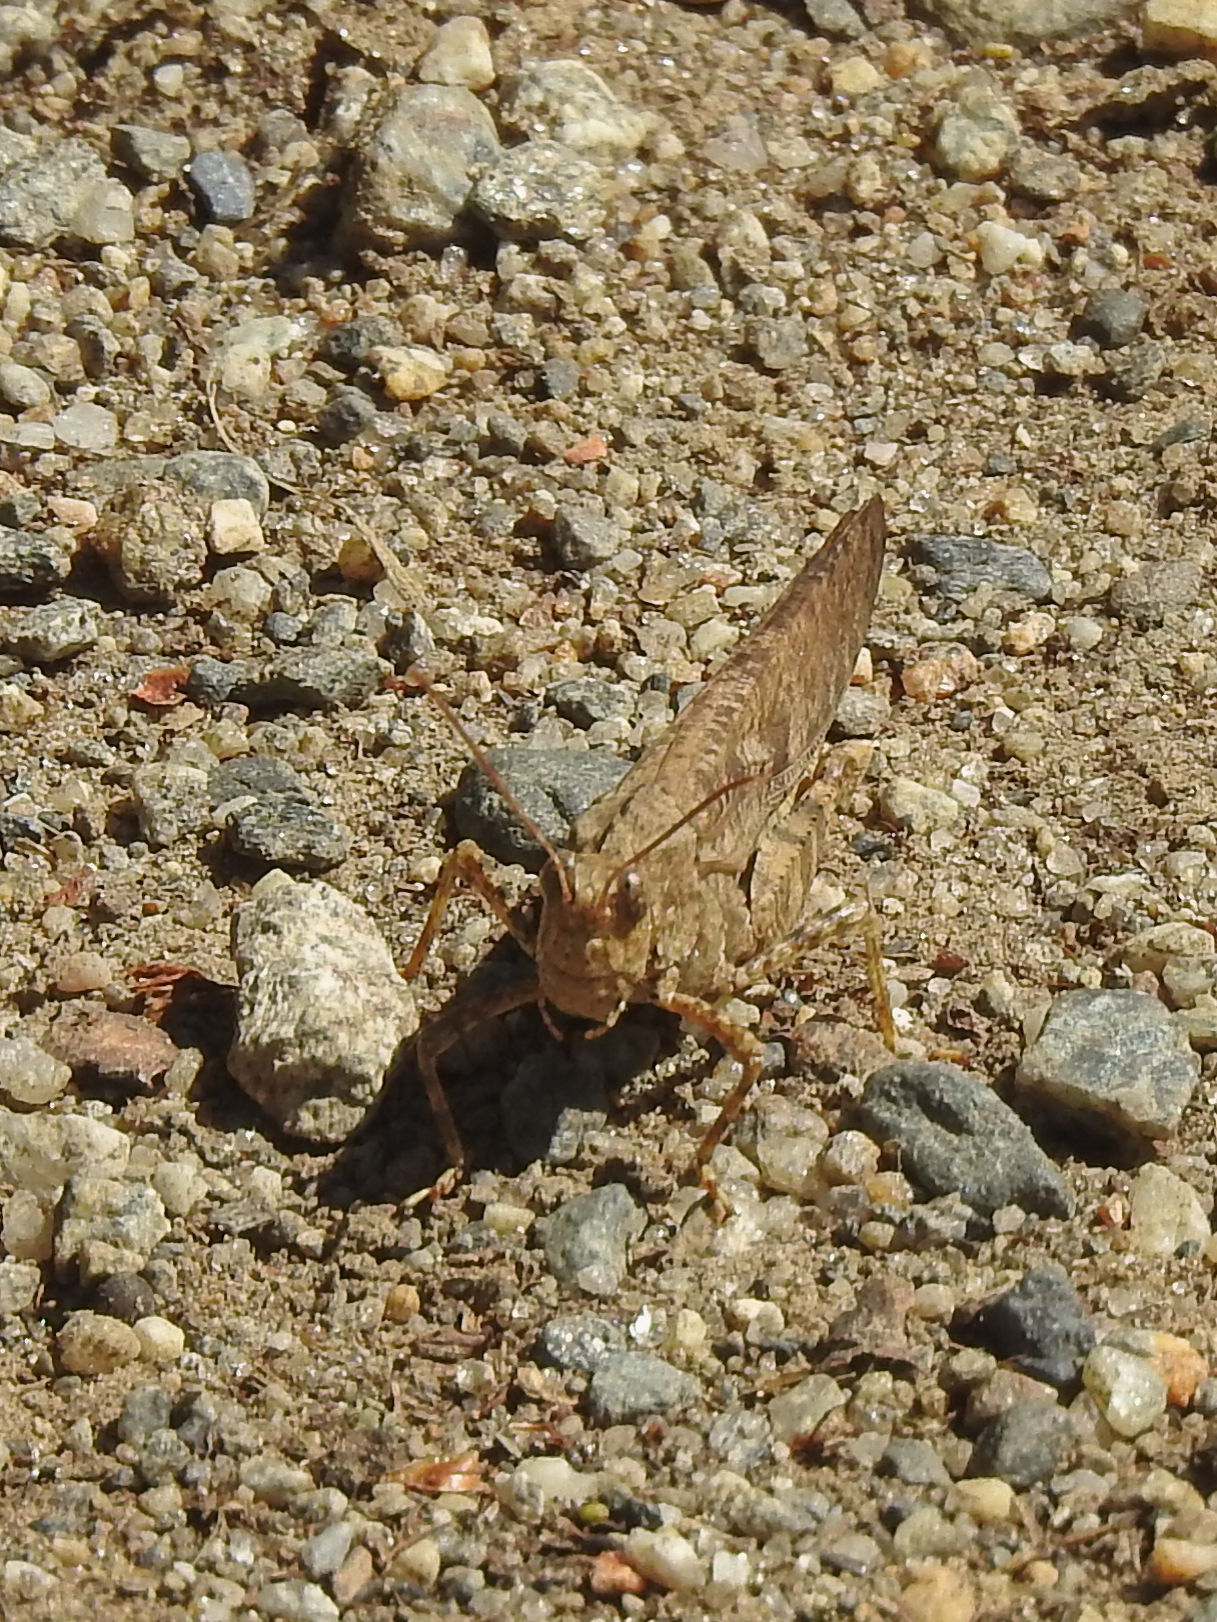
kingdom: Animalia
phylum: Arthropoda
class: Insecta
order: Orthoptera
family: Acrididae
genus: Dissosteira
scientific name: Dissosteira carolina
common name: Carolina grasshopper
